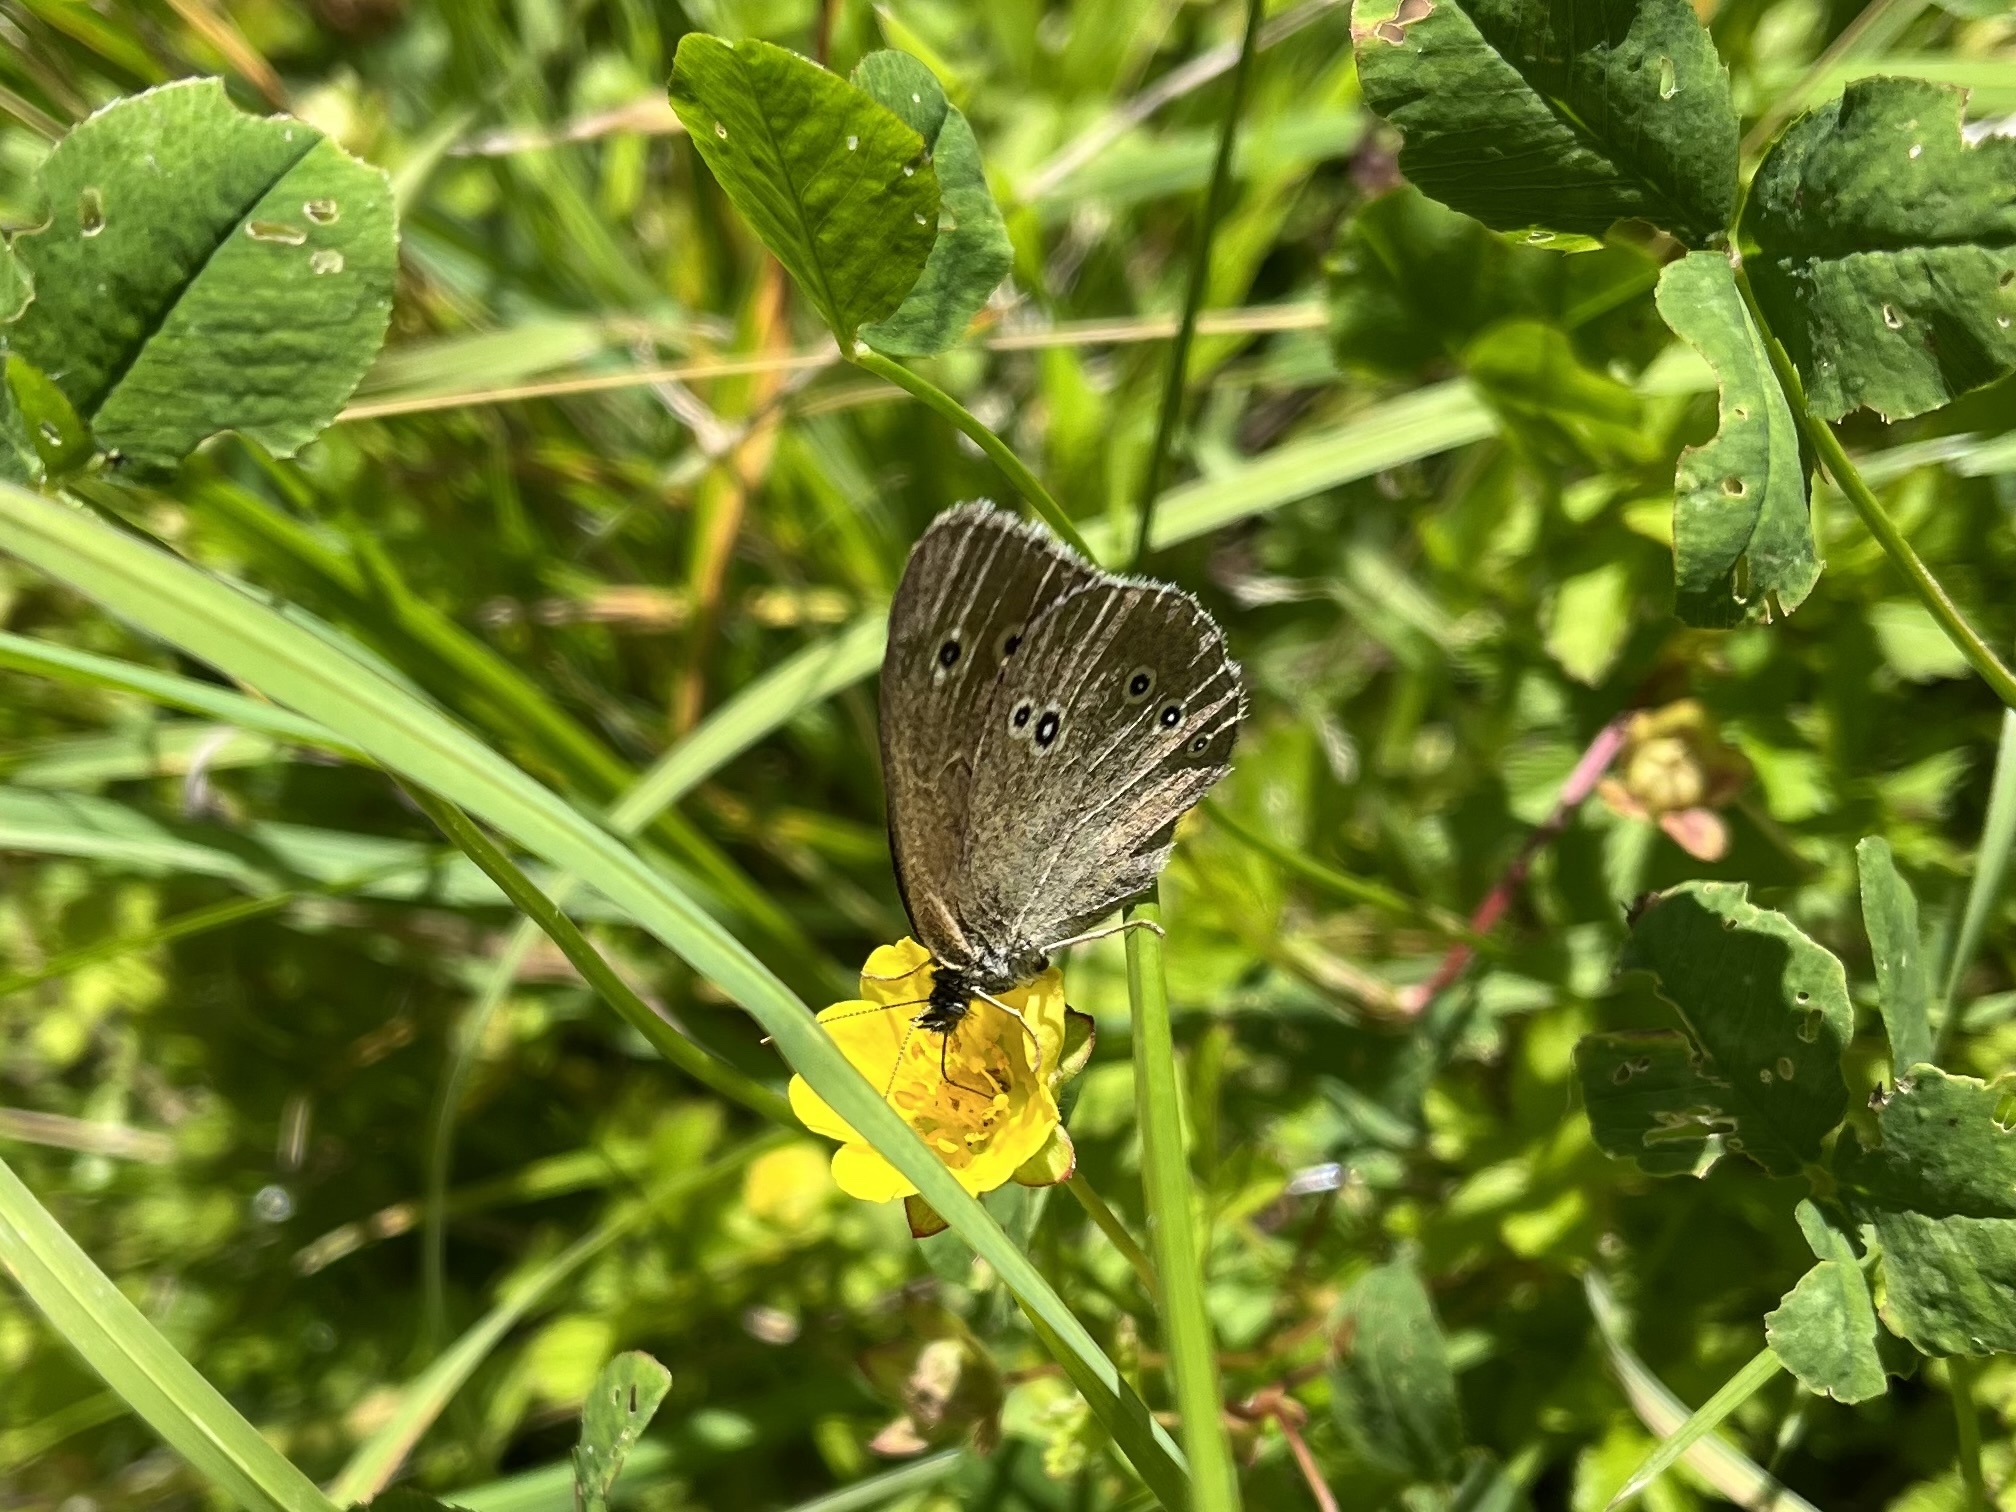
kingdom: Animalia
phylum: Arthropoda
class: Insecta
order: Lepidoptera
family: Nymphalidae
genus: Aphantopus
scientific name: Aphantopus hyperantus
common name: Ringlet
